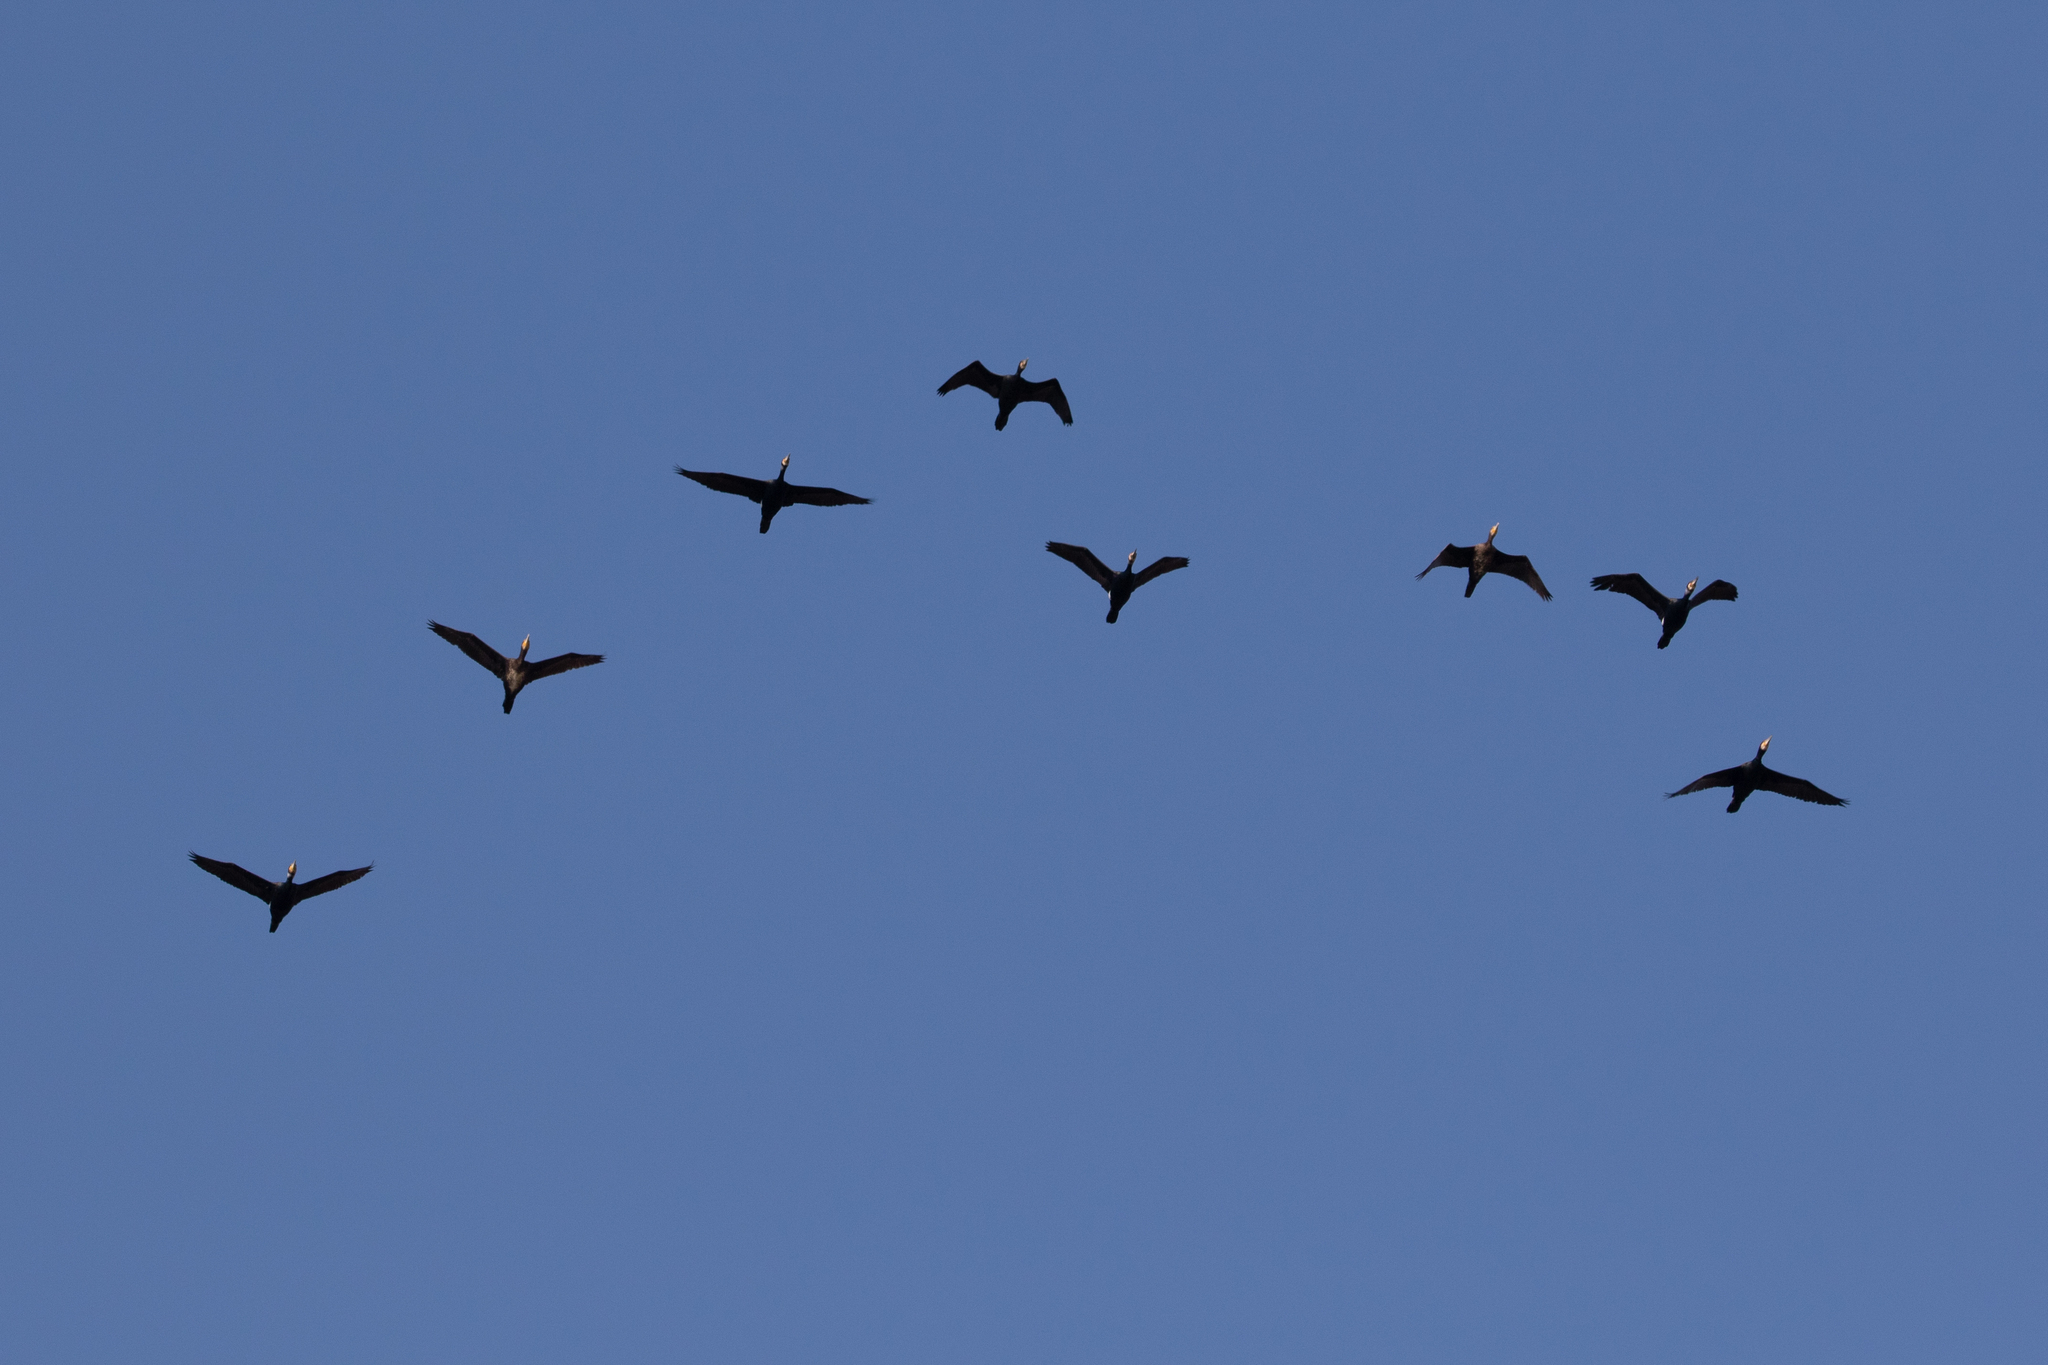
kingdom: Animalia
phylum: Chordata
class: Aves
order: Suliformes
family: Phalacrocoracidae
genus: Phalacrocorax
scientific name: Phalacrocorax carbo
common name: Great cormorant
